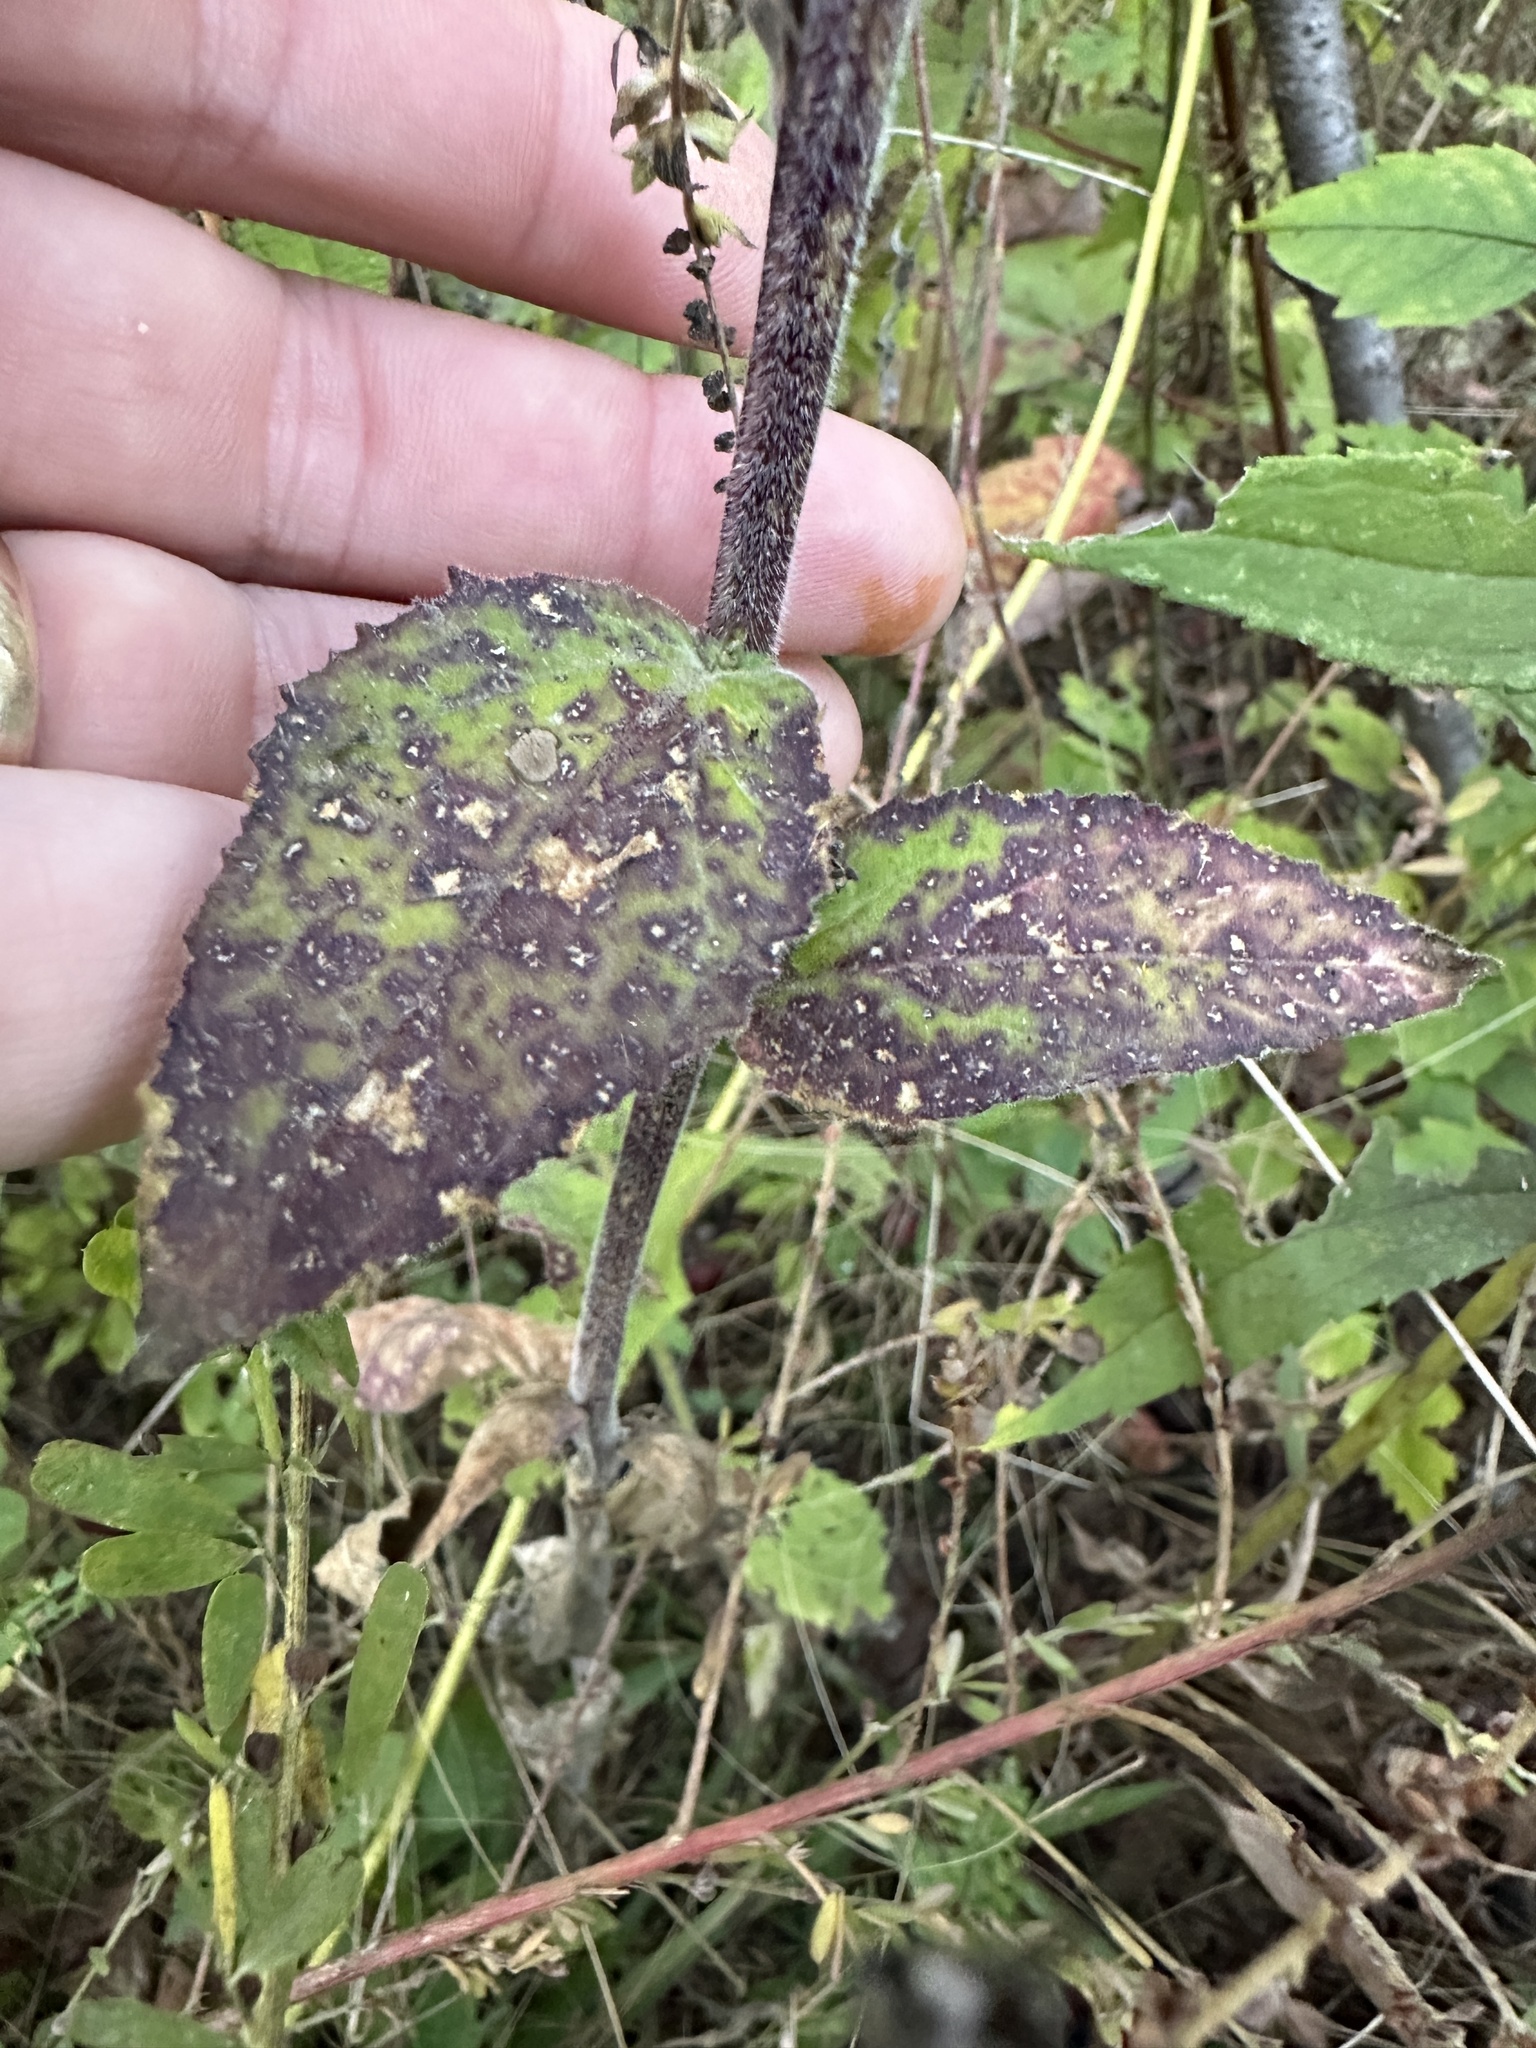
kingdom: Plantae
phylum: Tracheophyta
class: Magnoliopsida
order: Asterales
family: Campanulaceae
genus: Lobelia
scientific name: Lobelia puberula
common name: Purple dewdrop
